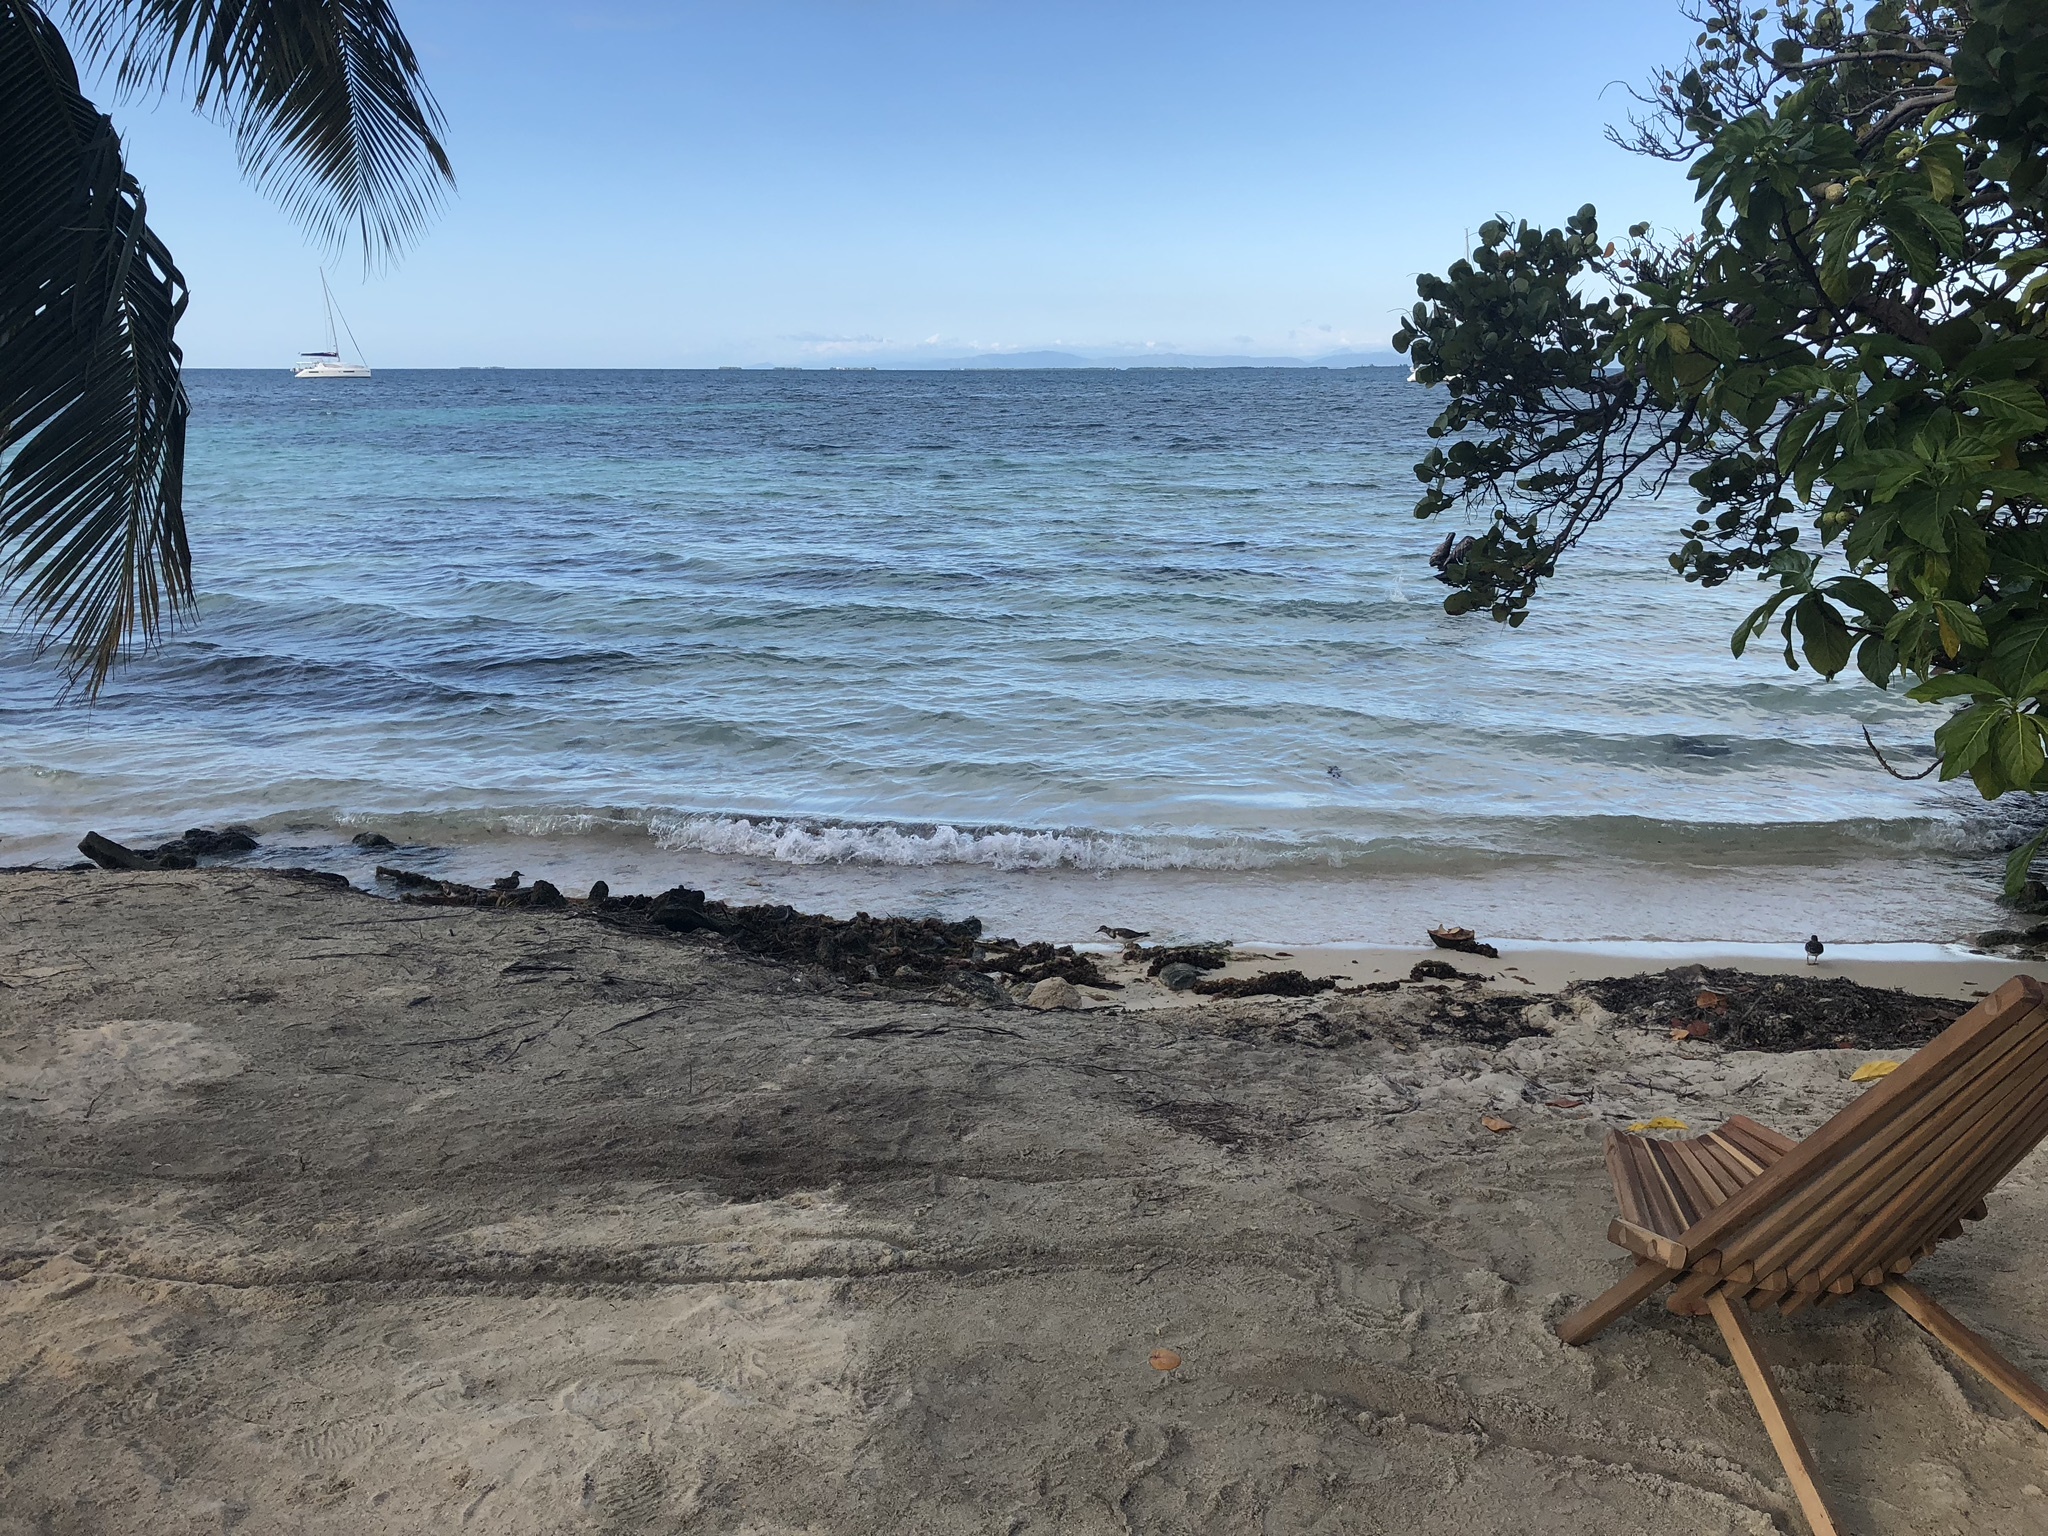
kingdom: Animalia
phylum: Chordata
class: Aves
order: Charadriiformes
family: Scolopacidae
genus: Arenaria
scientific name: Arenaria interpres
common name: Ruddy turnstone
